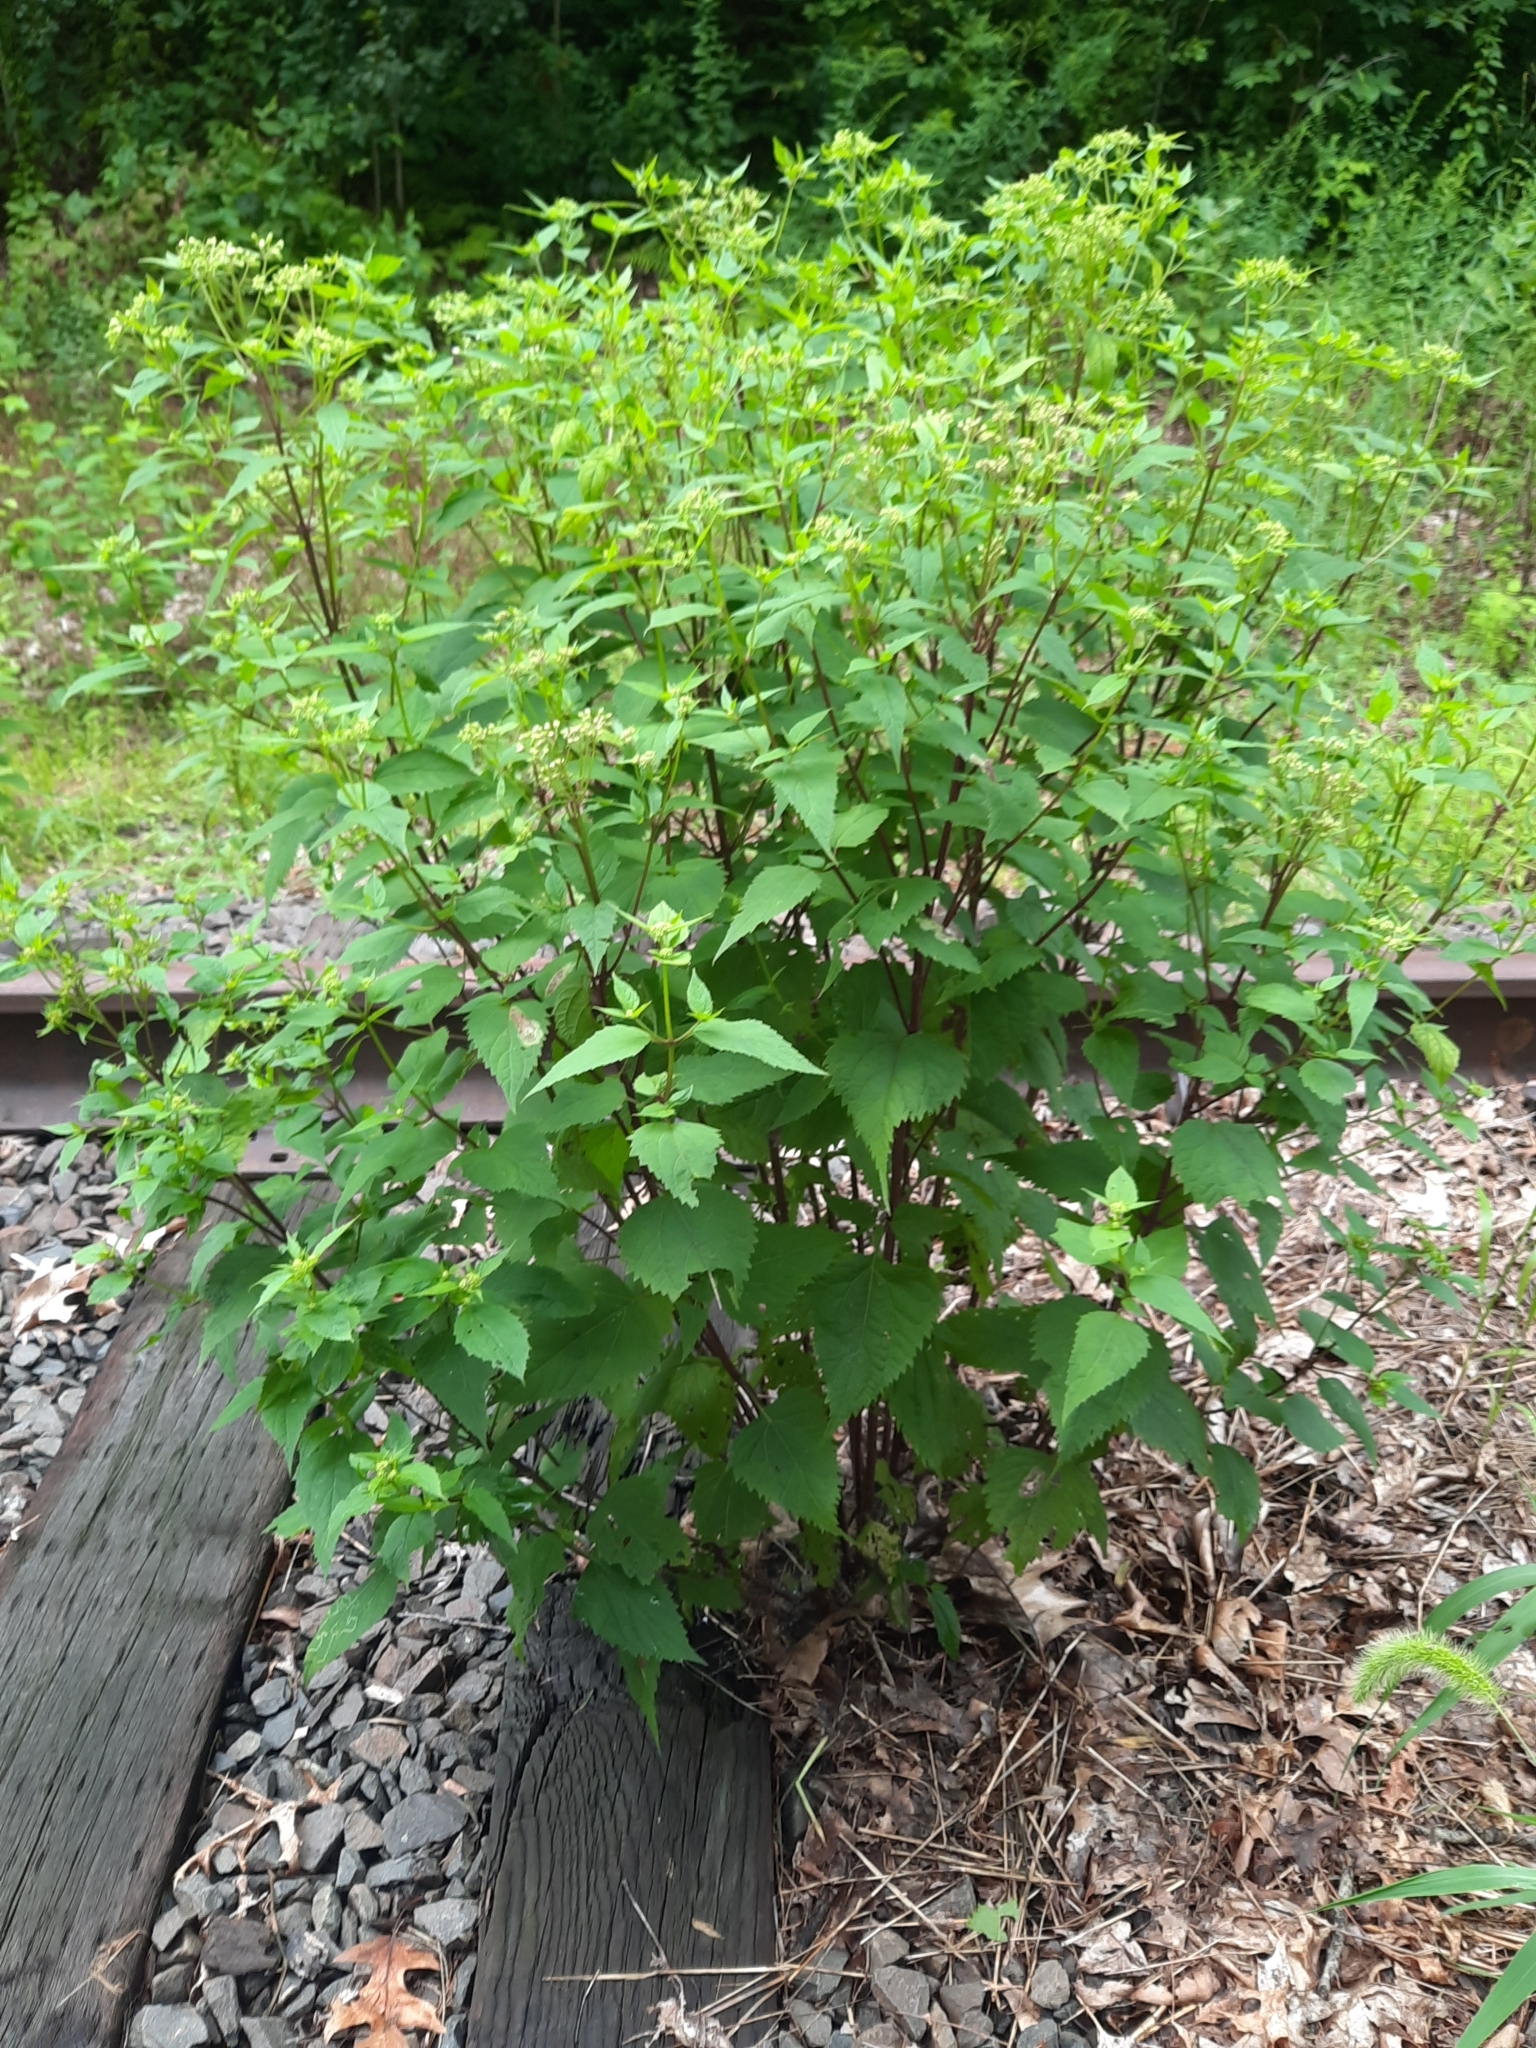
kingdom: Plantae
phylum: Tracheophyta
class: Magnoliopsida
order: Asterales
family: Asteraceae
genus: Ageratina
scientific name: Ageratina altissima
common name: White snakeroot
